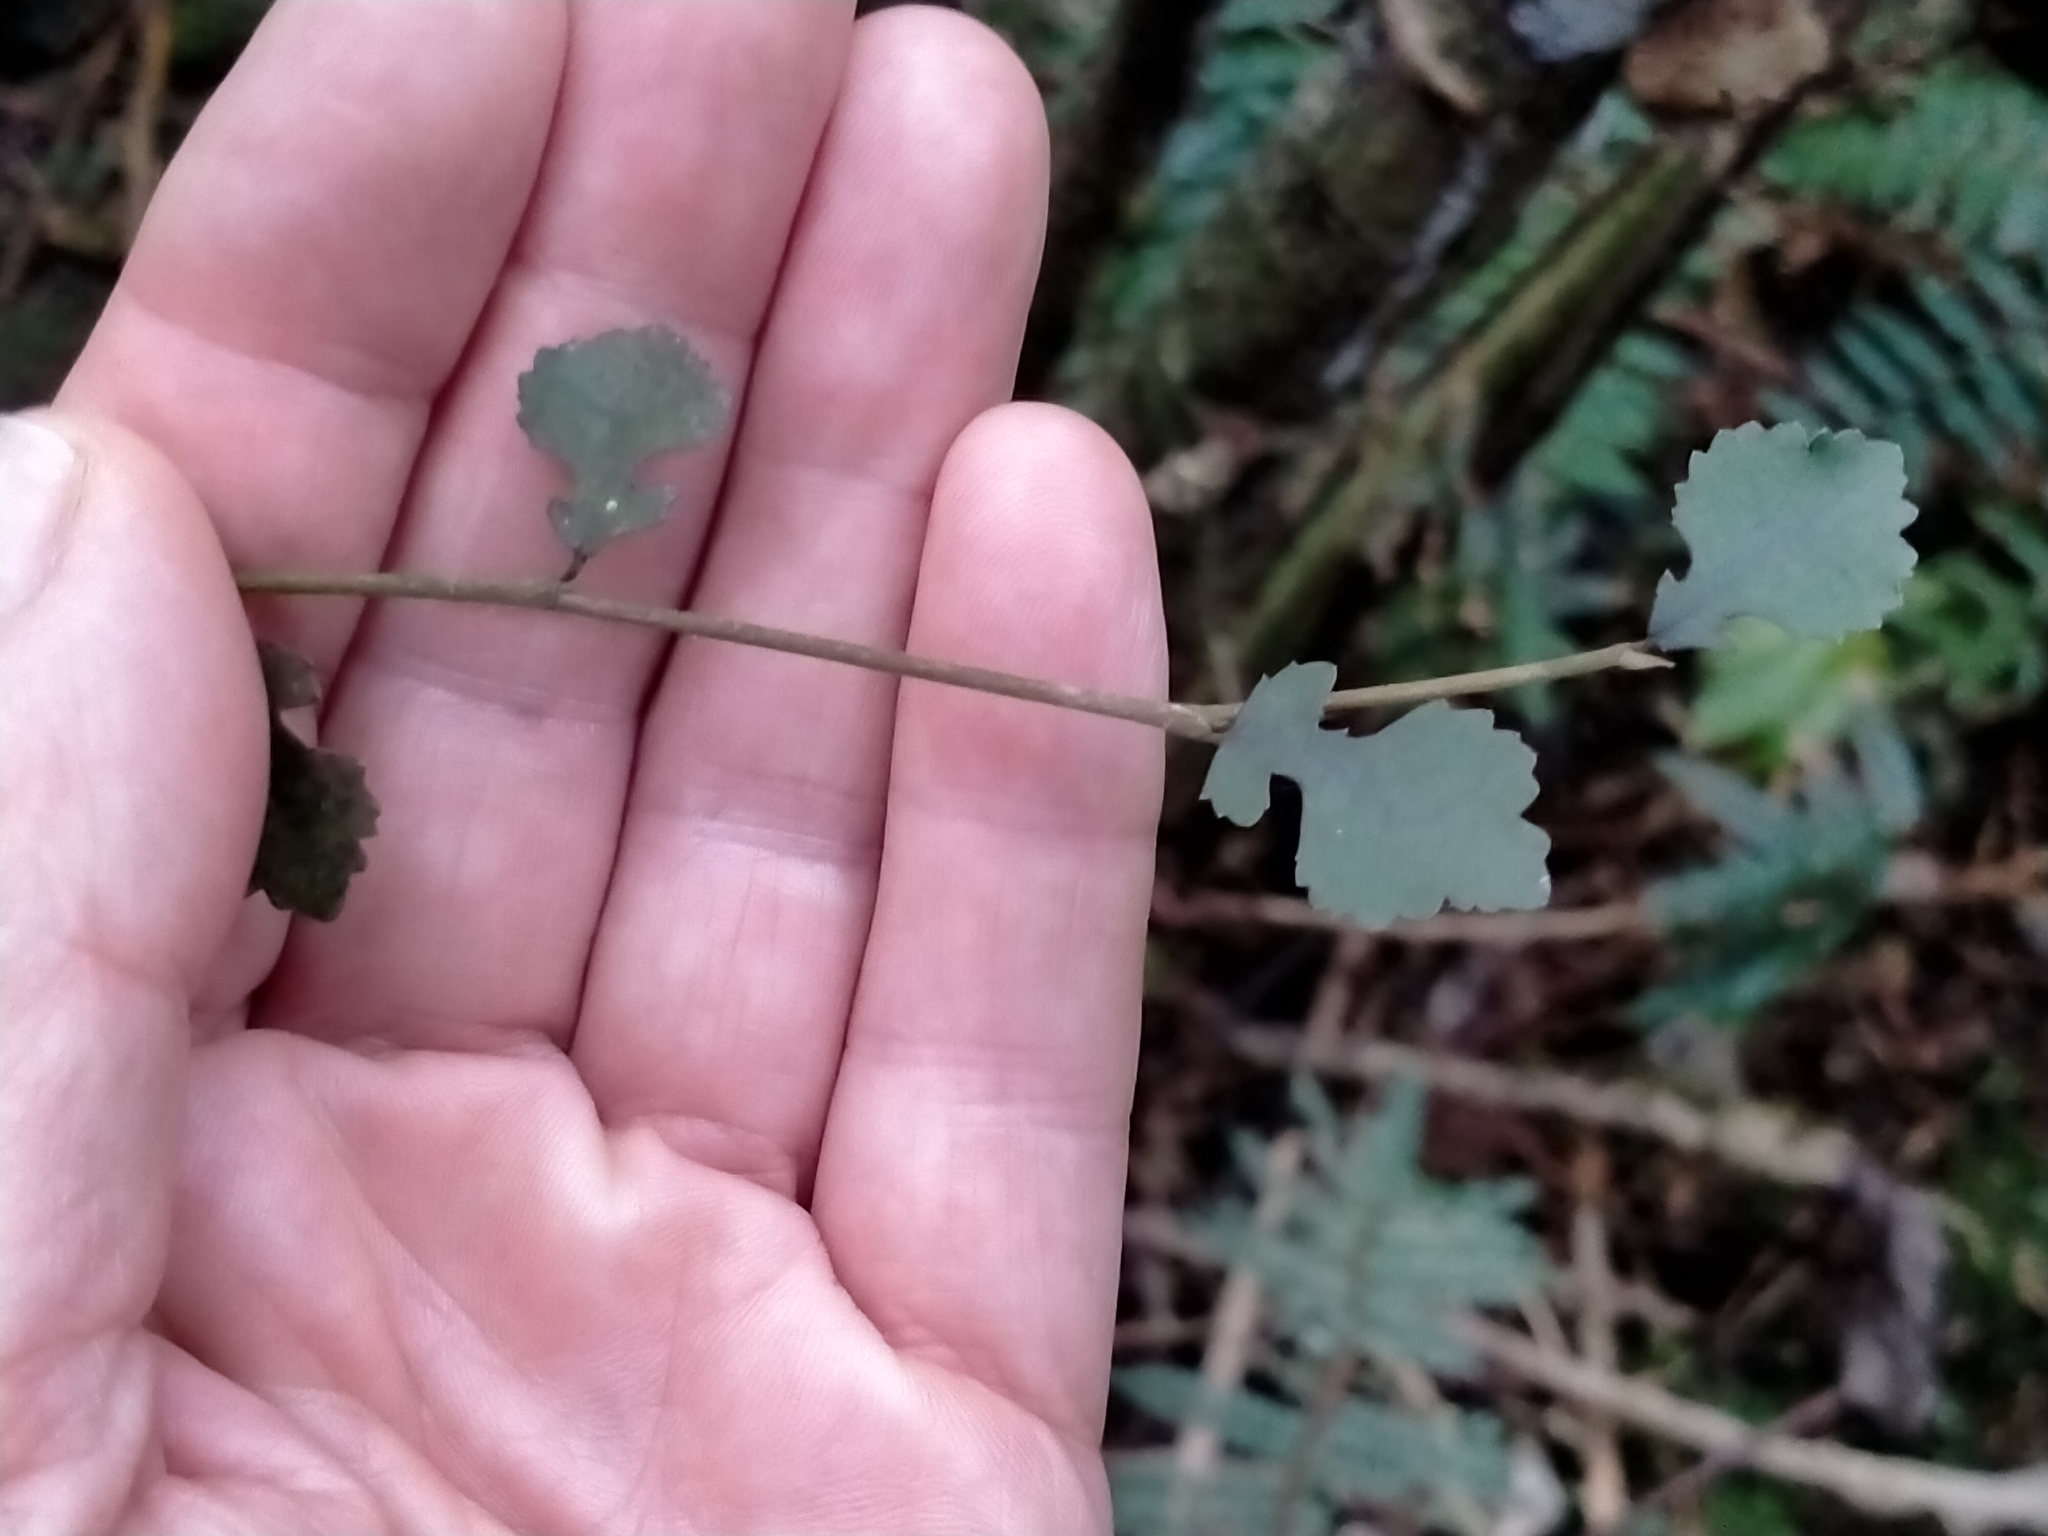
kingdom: Plantae
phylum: Tracheophyta
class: Magnoliopsida
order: Rosales
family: Moraceae
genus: Paratrophis
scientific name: Paratrophis microphylla
